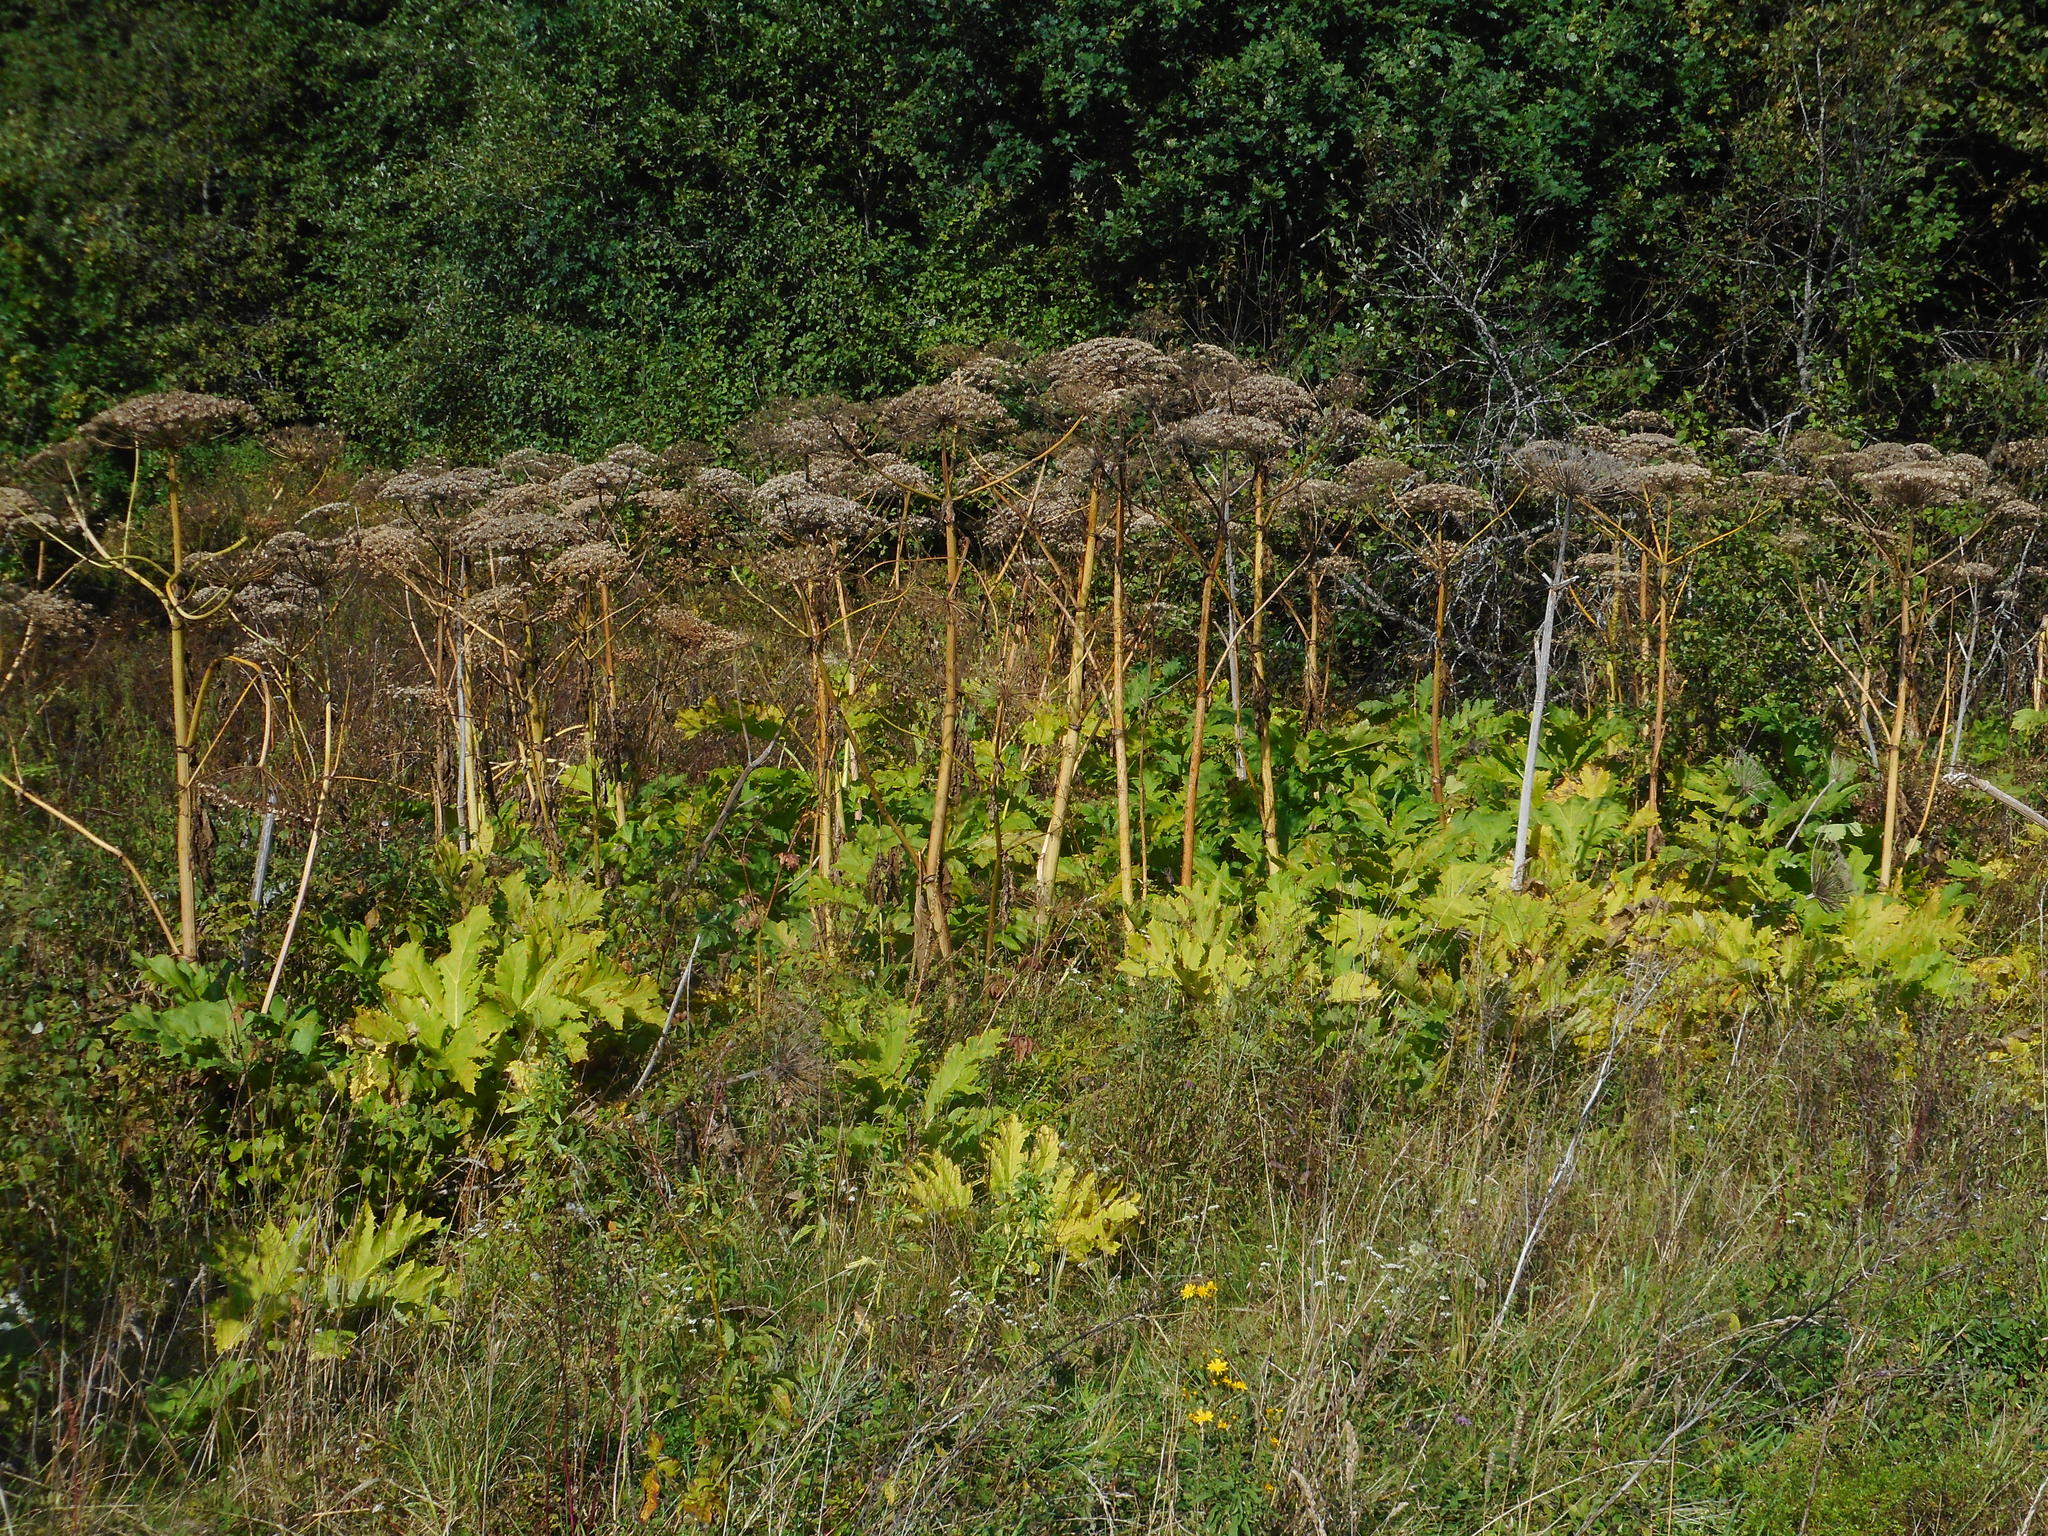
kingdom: Plantae
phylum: Tracheophyta
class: Magnoliopsida
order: Apiales
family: Apiaceae
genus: Heracleum
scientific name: Heracleum sosnowskyi
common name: Sosnowsky's hogweed
